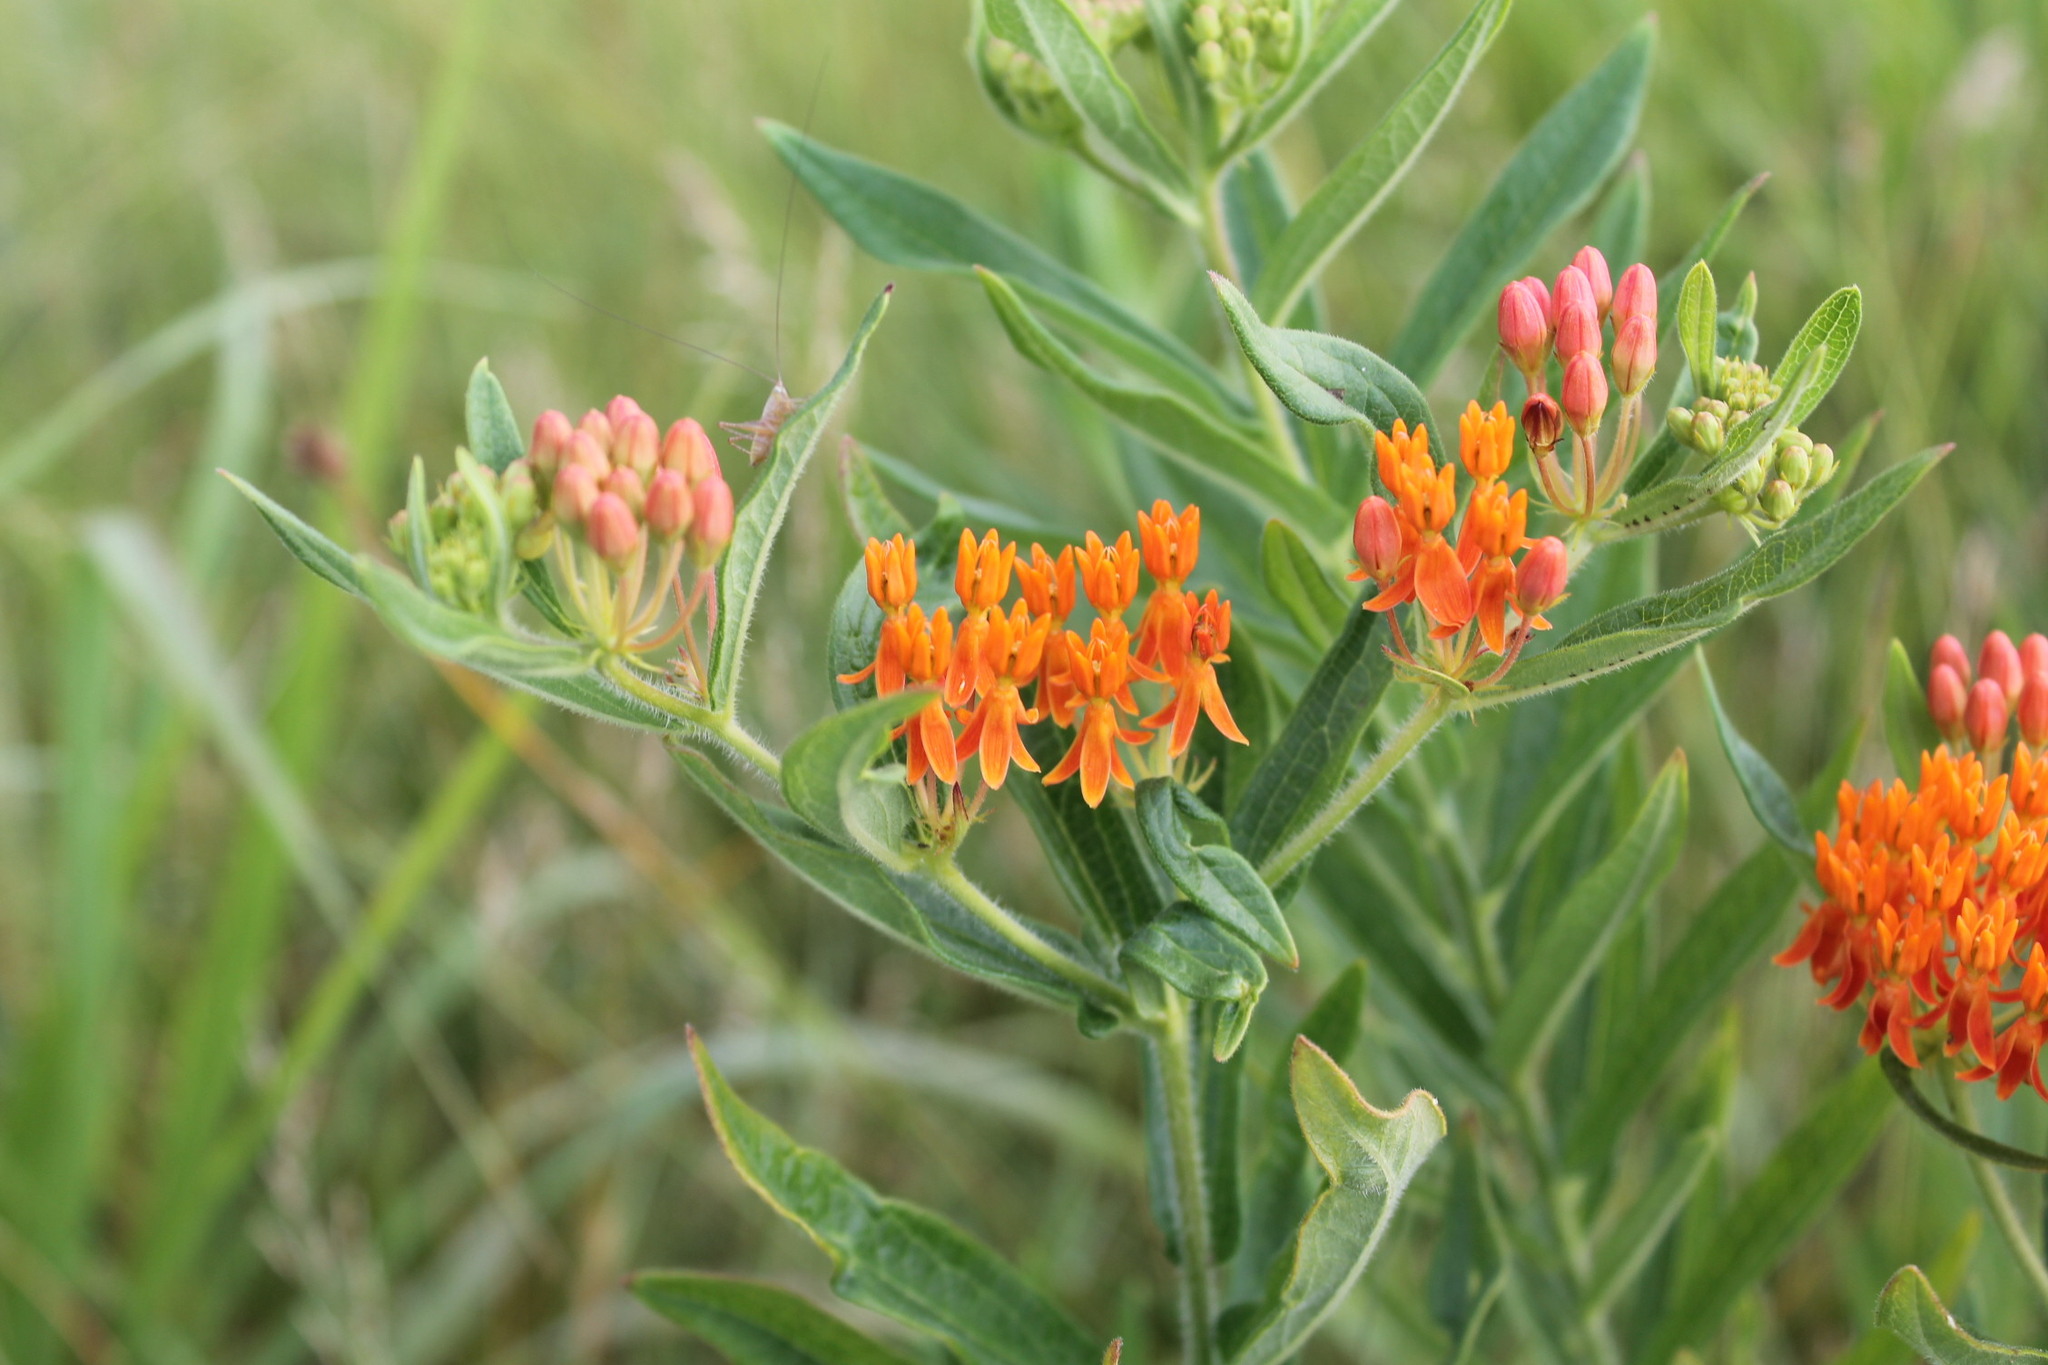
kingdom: Plantae
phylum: Tracheophyta
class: Magnoliopsida
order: Gentianales
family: Apocynaceae
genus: Asclepias
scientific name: Asclepias tuberosa
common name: Butterfly milkweed
